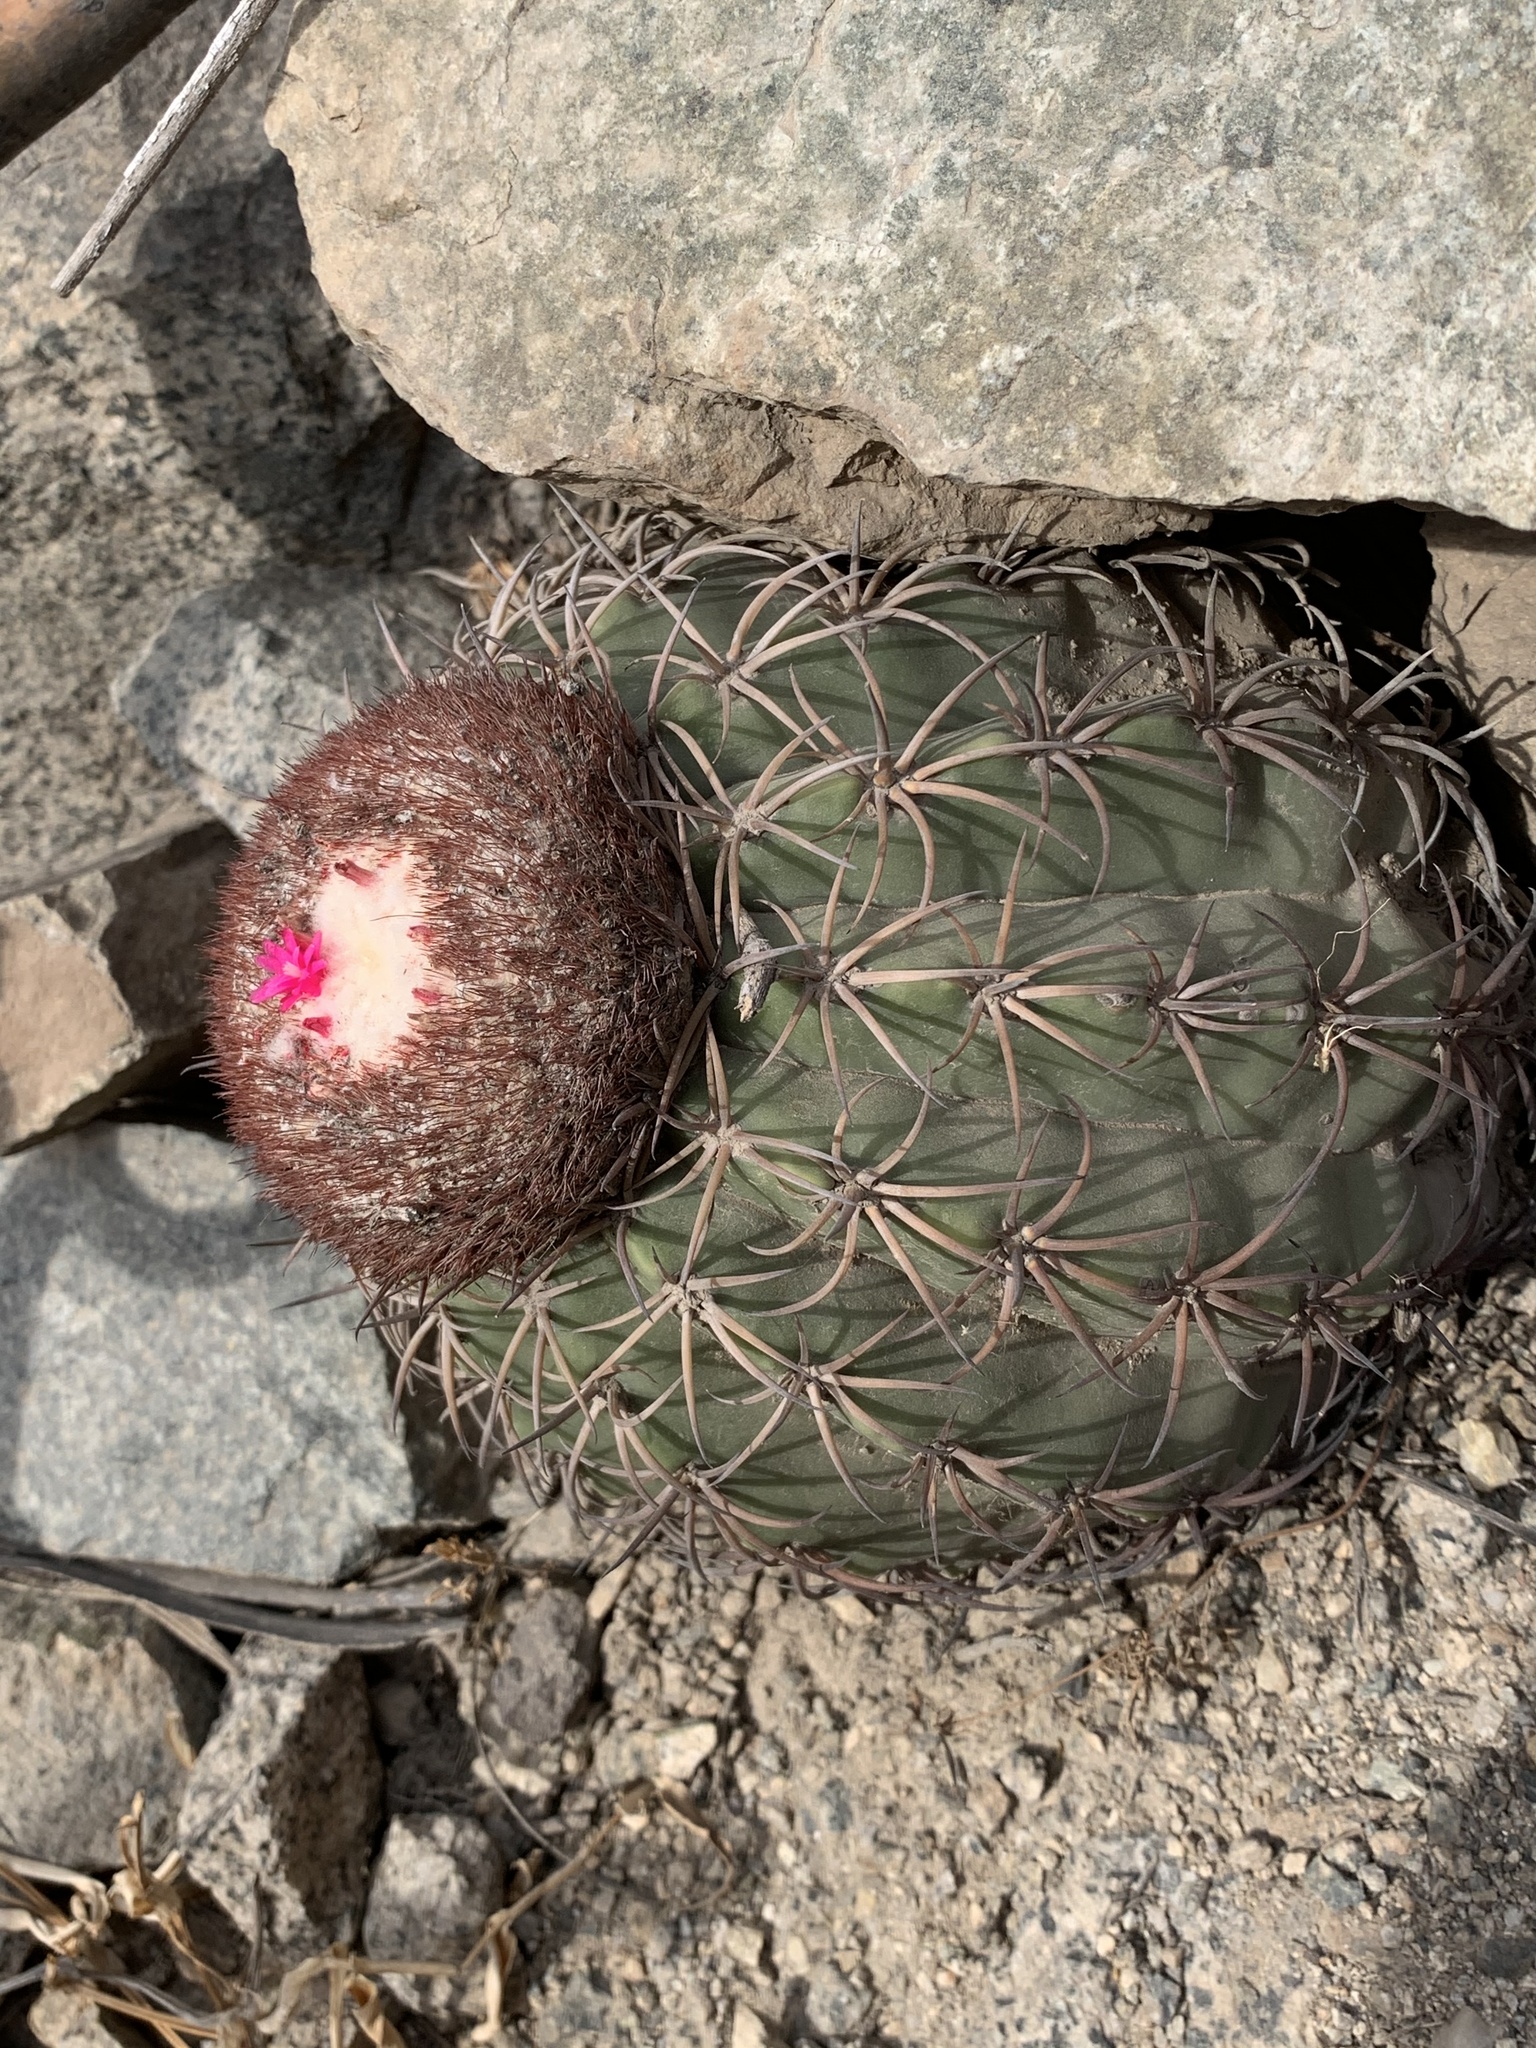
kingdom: Plantae
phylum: Tracheophyta
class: Magnoliopsida
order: Caryophyllales
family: Cactaceae
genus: Melocactus
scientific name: Melocactus peruvianus
